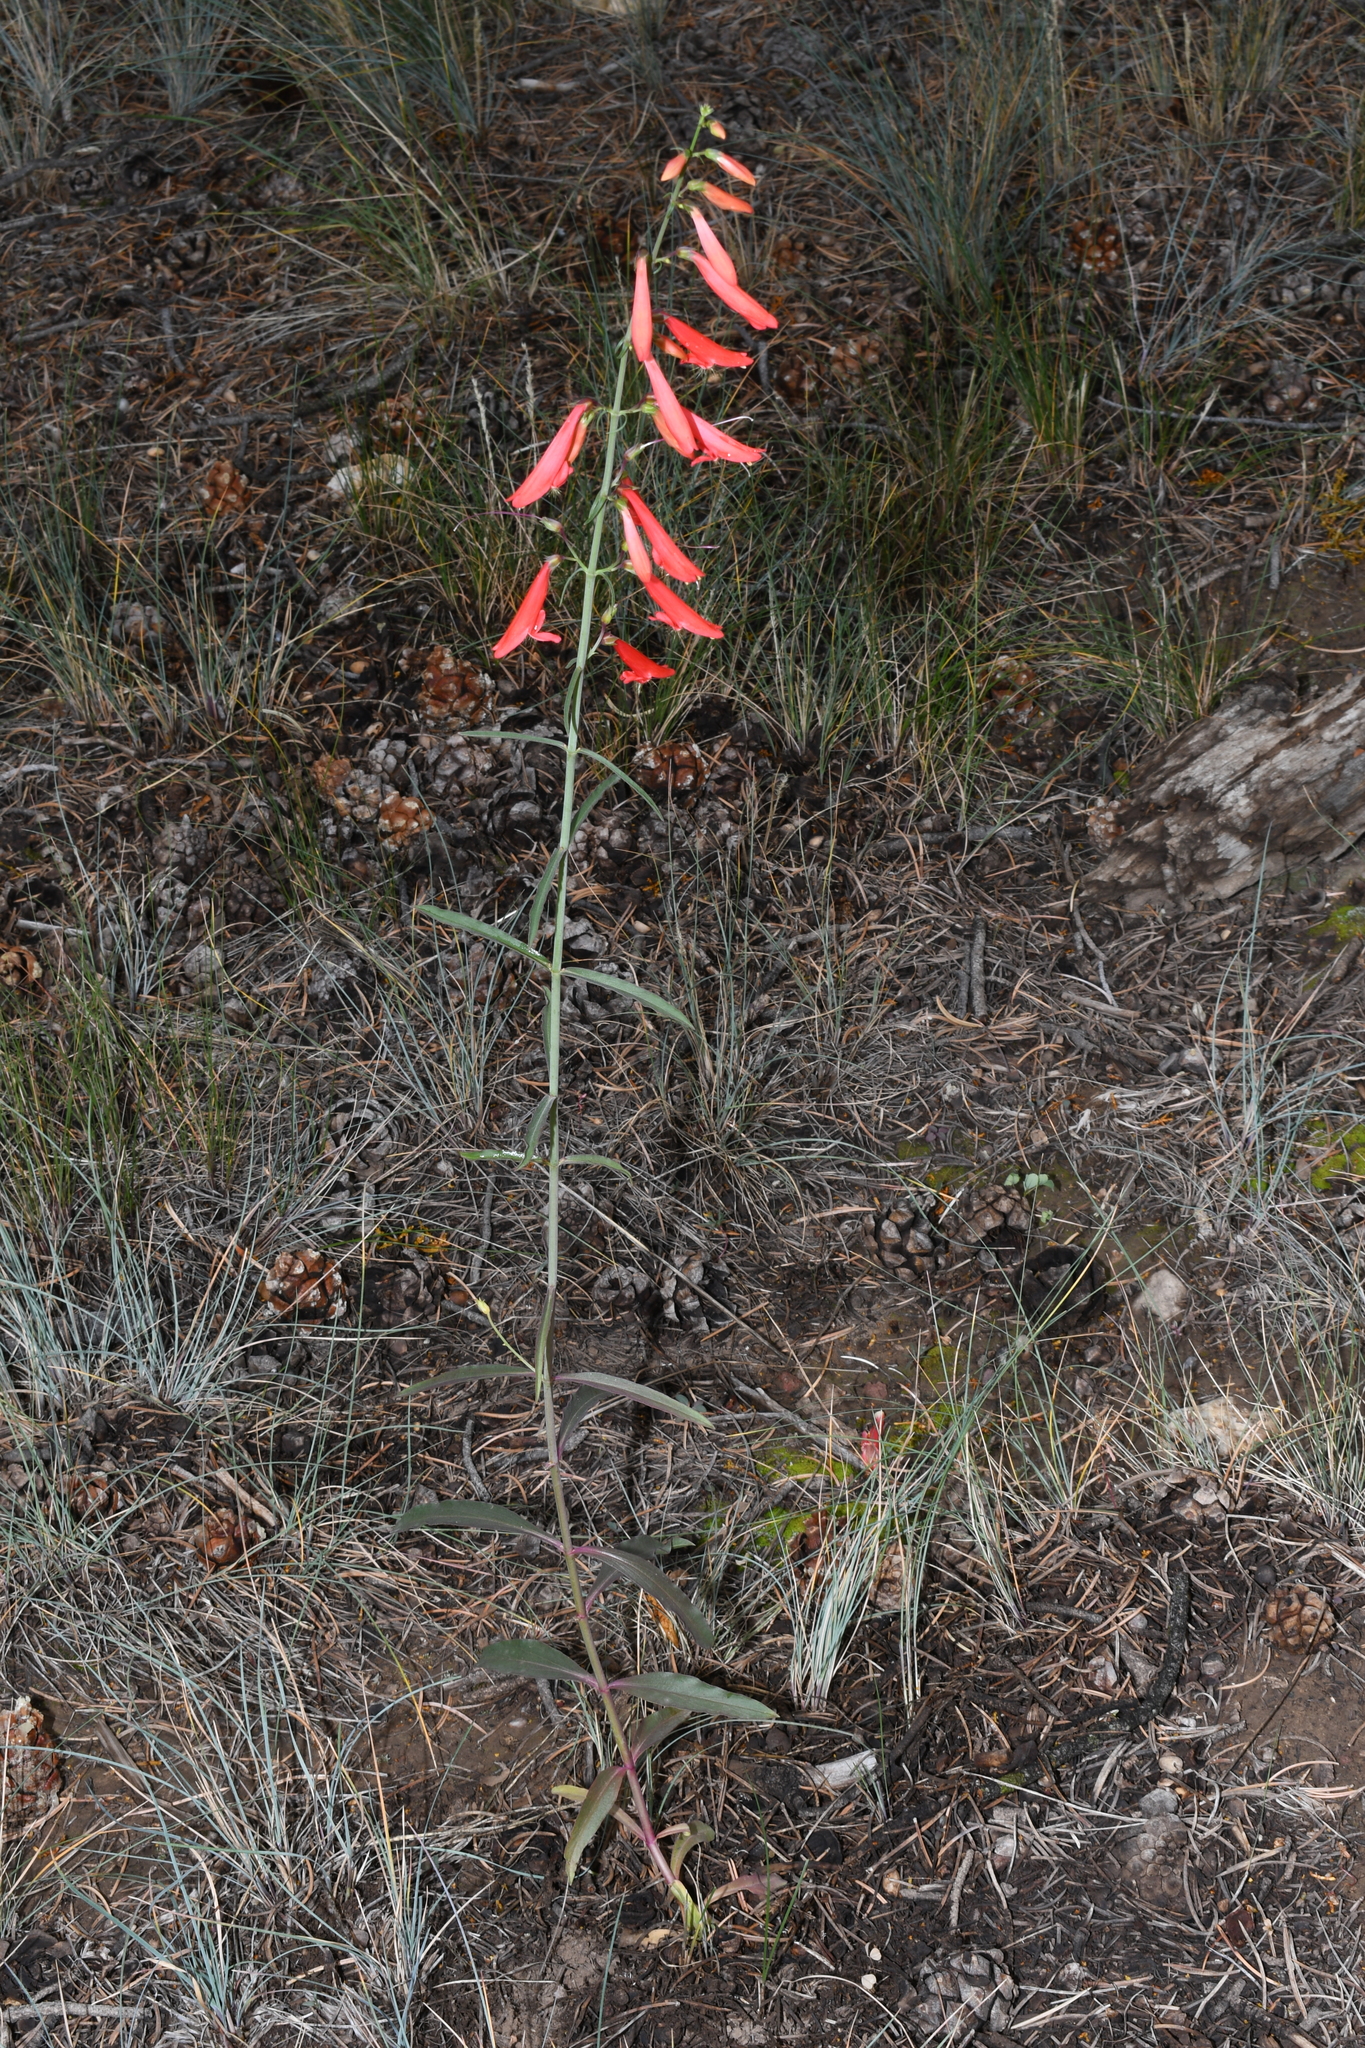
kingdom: Plantae
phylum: Tracheophyta
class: Magnoliopsida
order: Lamiales
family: Plantaginaceae
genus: Penstemon
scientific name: Penstemon barbatus
